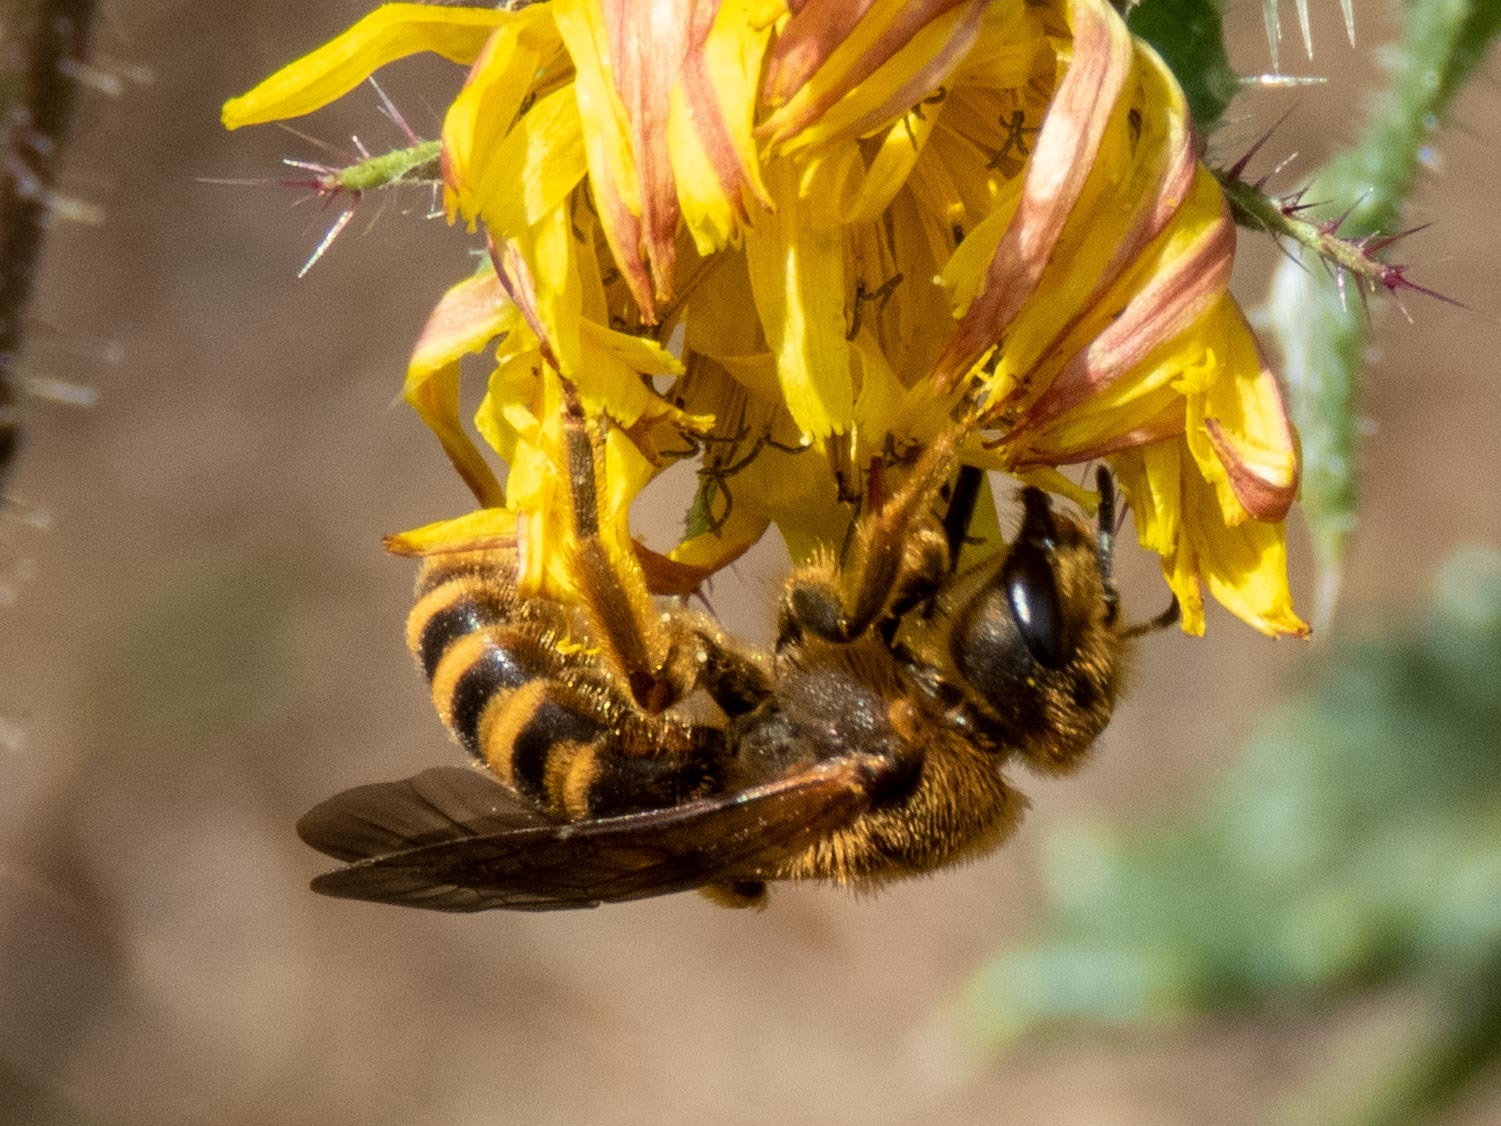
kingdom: Animalia
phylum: Arthropoda
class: Insecta
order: Hymenoptera
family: Halictidae
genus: Halictus
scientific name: Halictus scabiosae
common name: Great banded furrow bee
